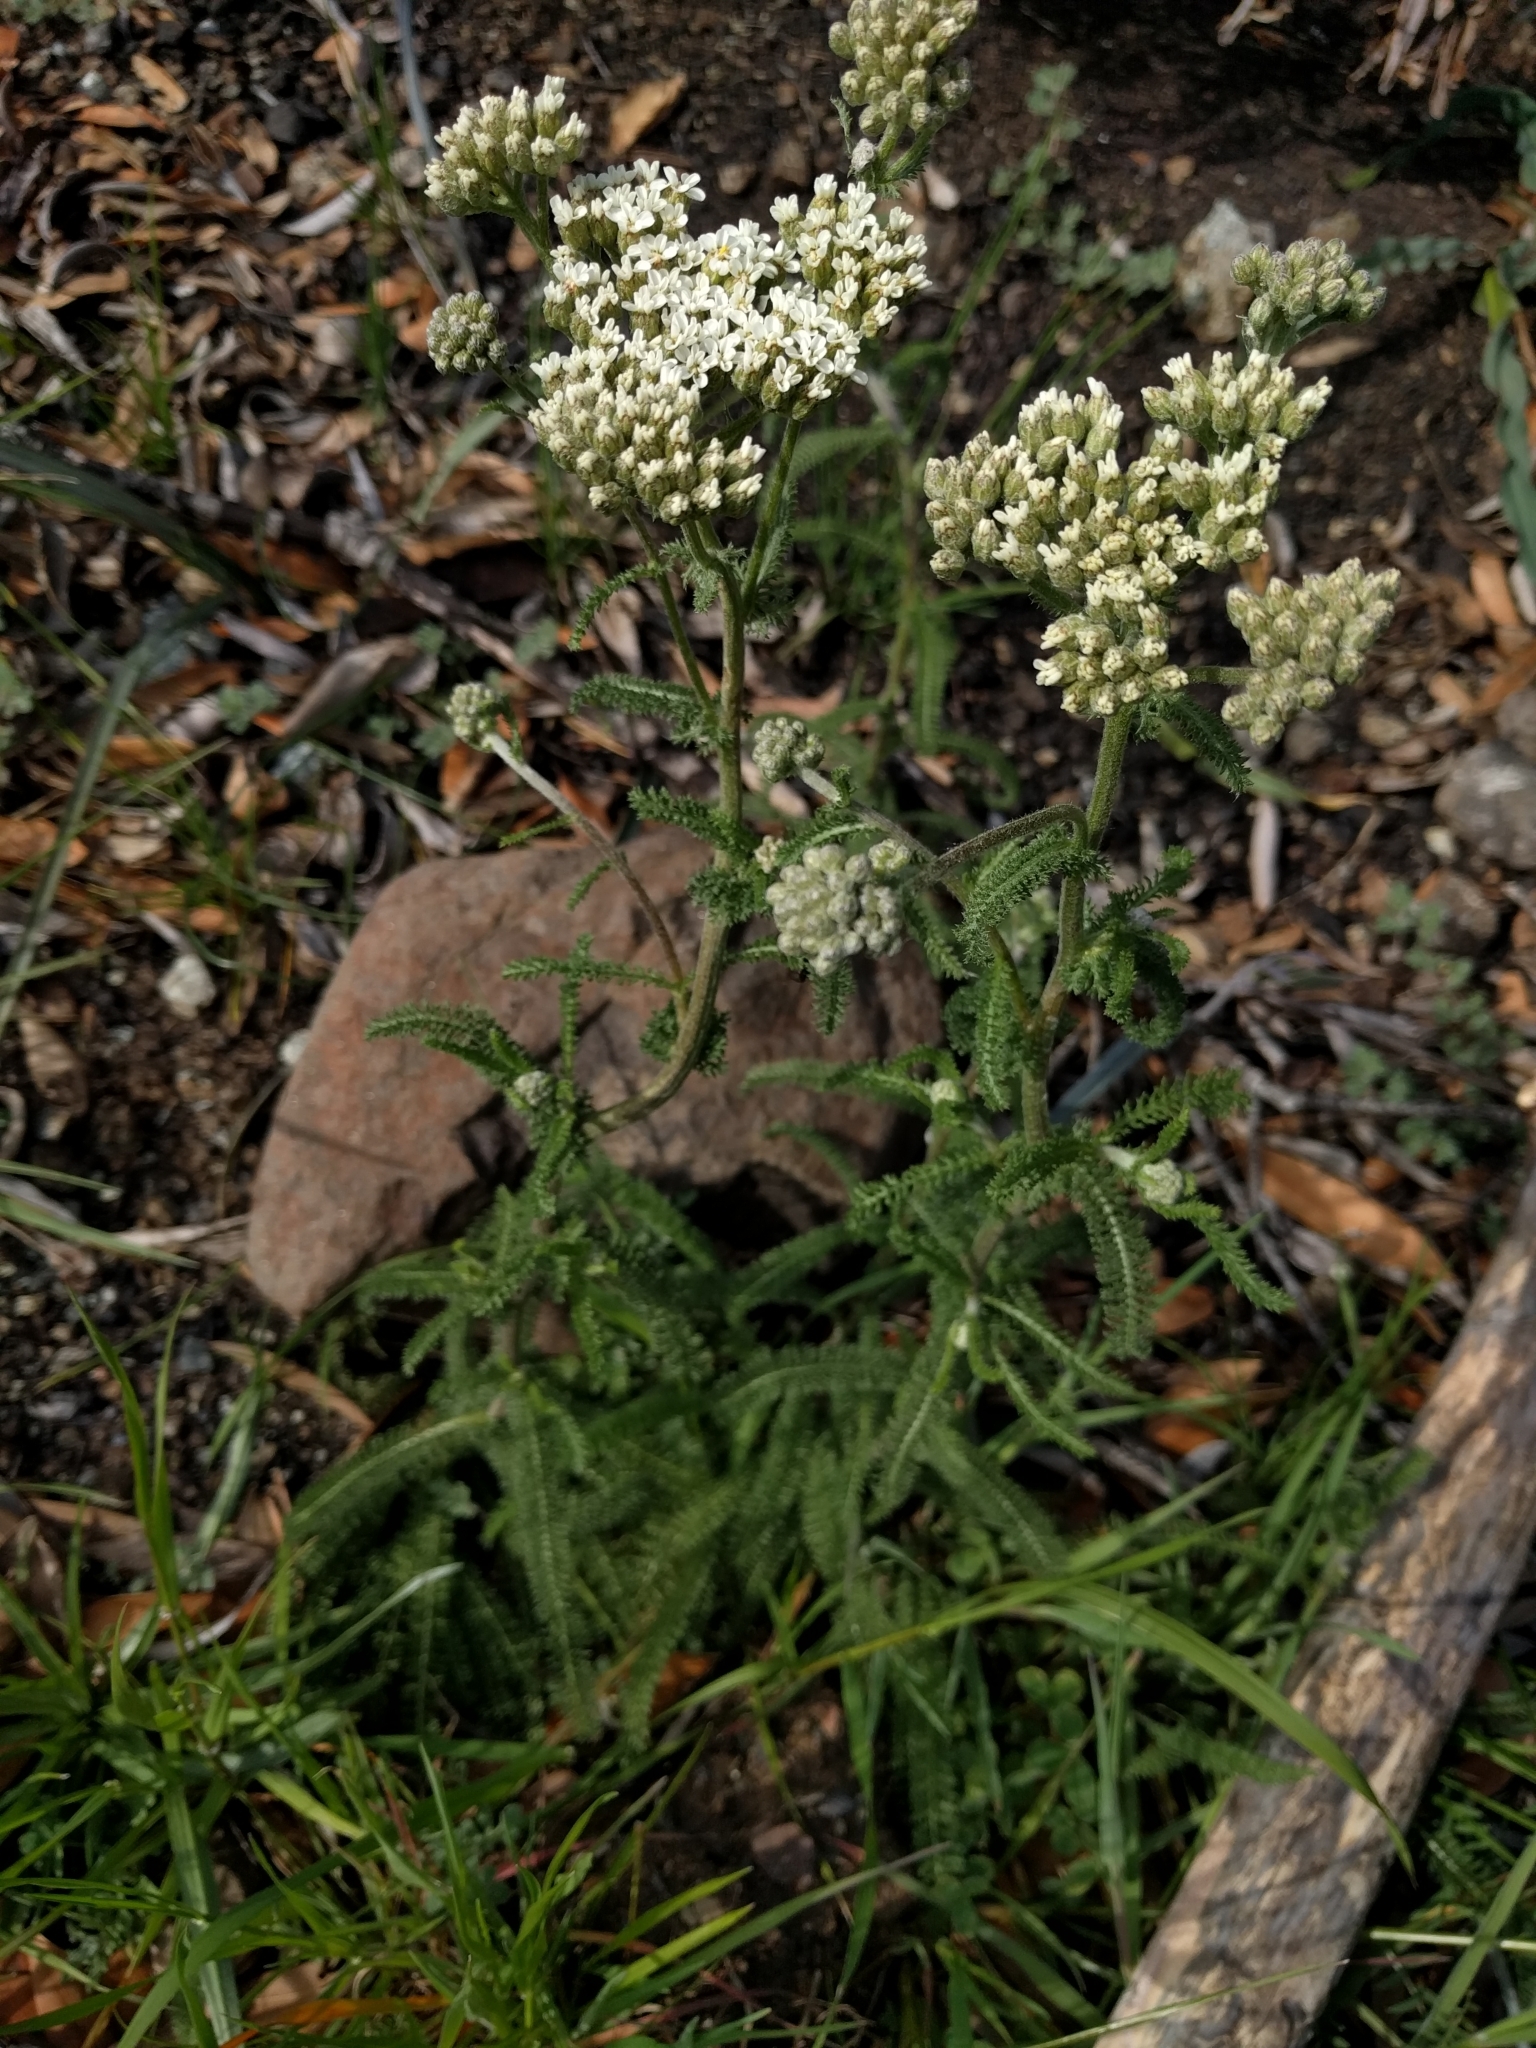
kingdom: Plantae
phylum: Tracheophyta
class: Magnoliopsida
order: Asterales
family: Asteraceae
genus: Achillea
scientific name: Achillea millefolium
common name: Yarrow
